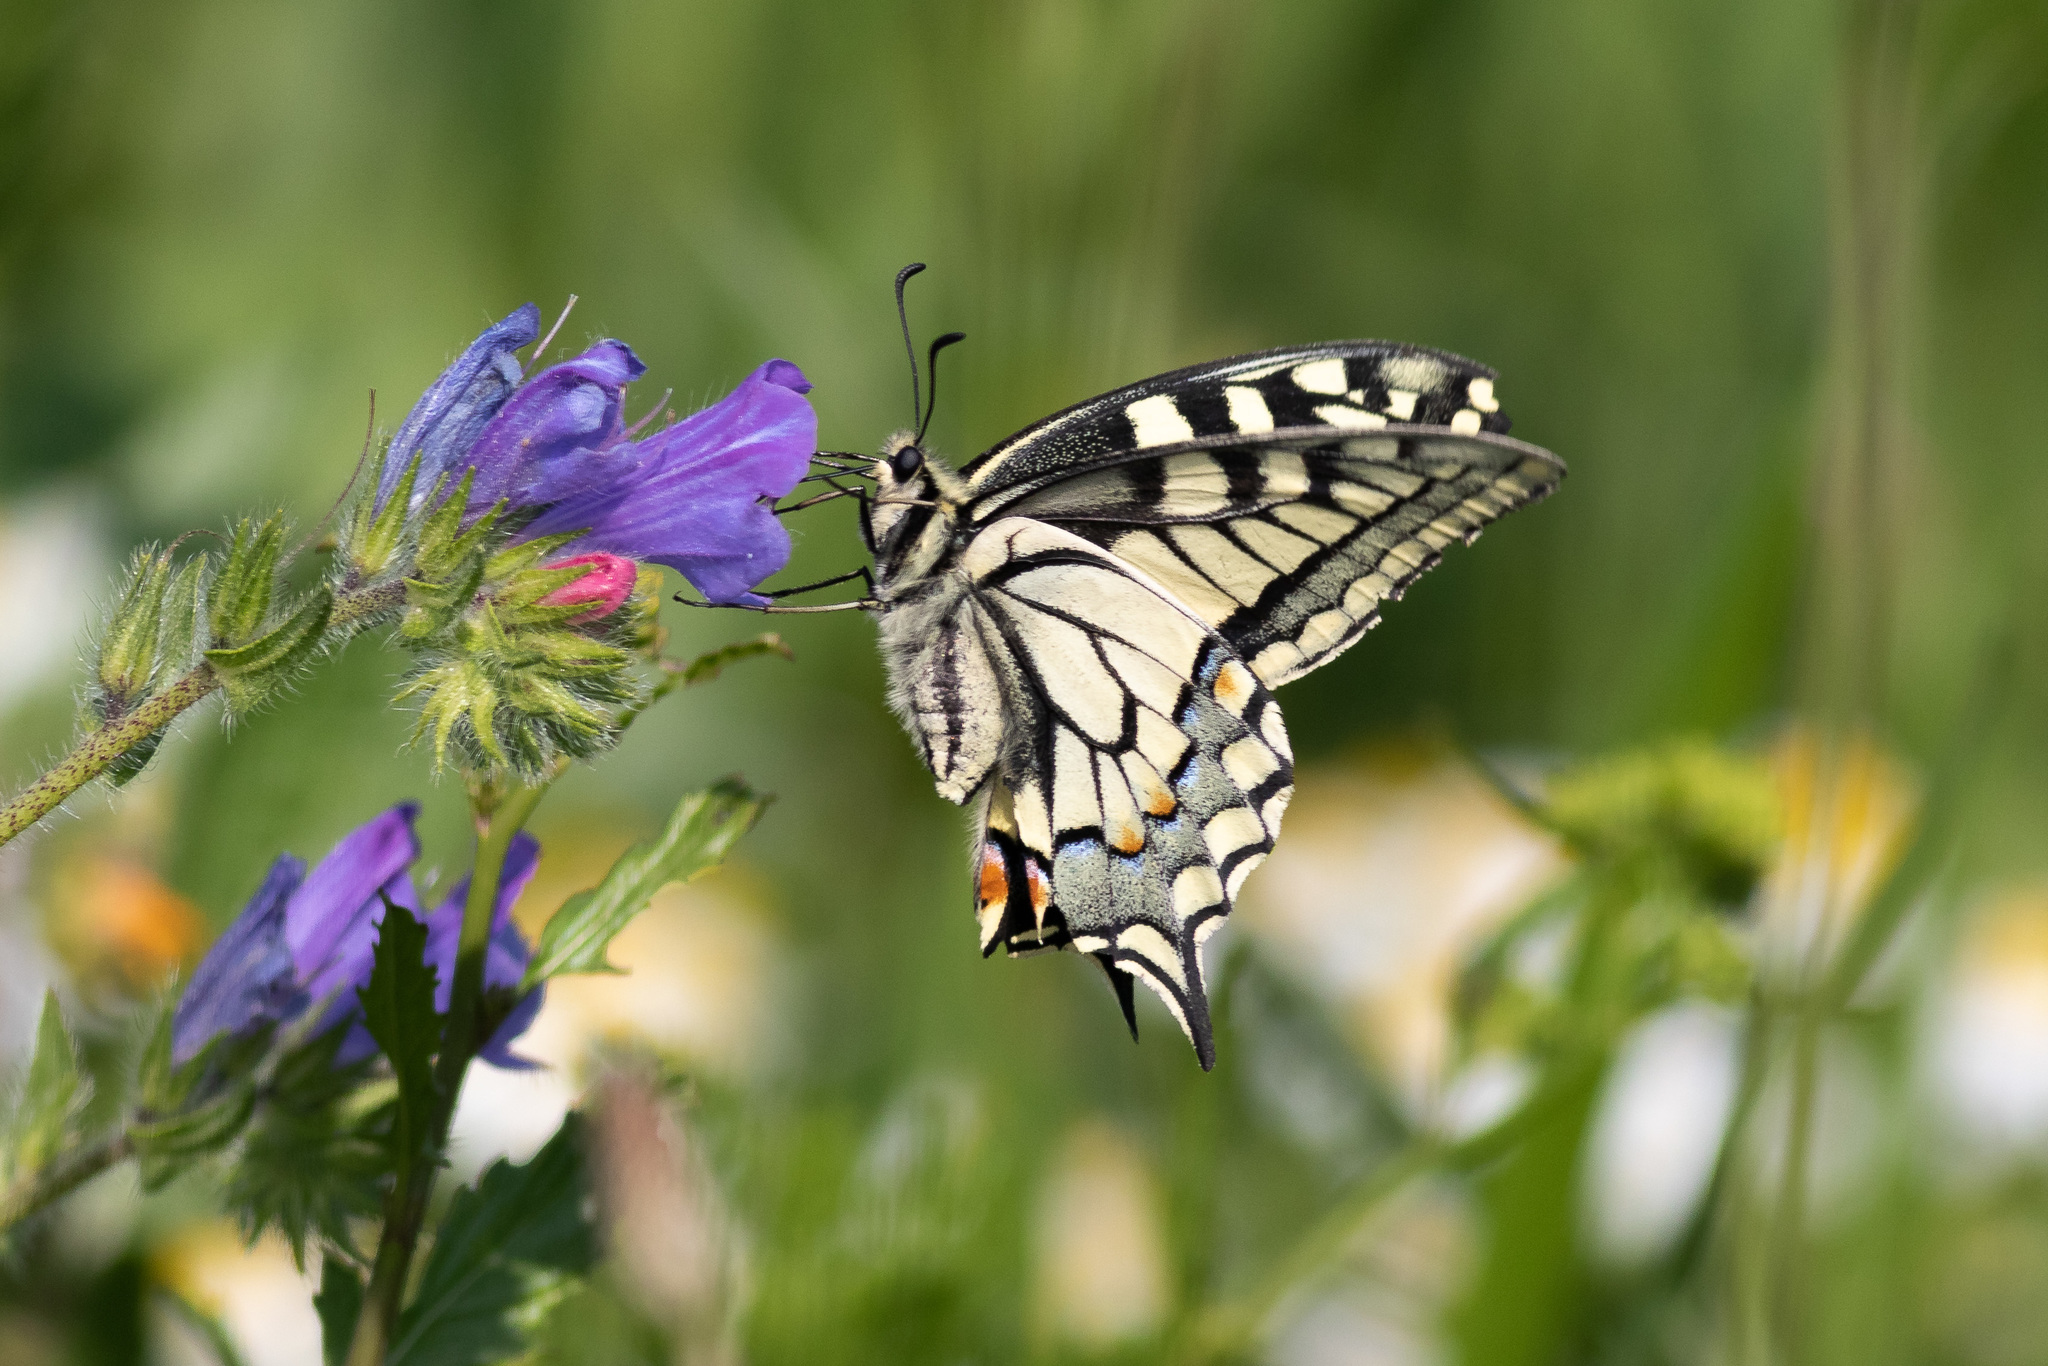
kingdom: Animalia
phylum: Arthropoda
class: Insecta
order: Lepidoptera
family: Papilionidae
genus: Papilio
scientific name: Papilio machaon
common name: Swallowtail
